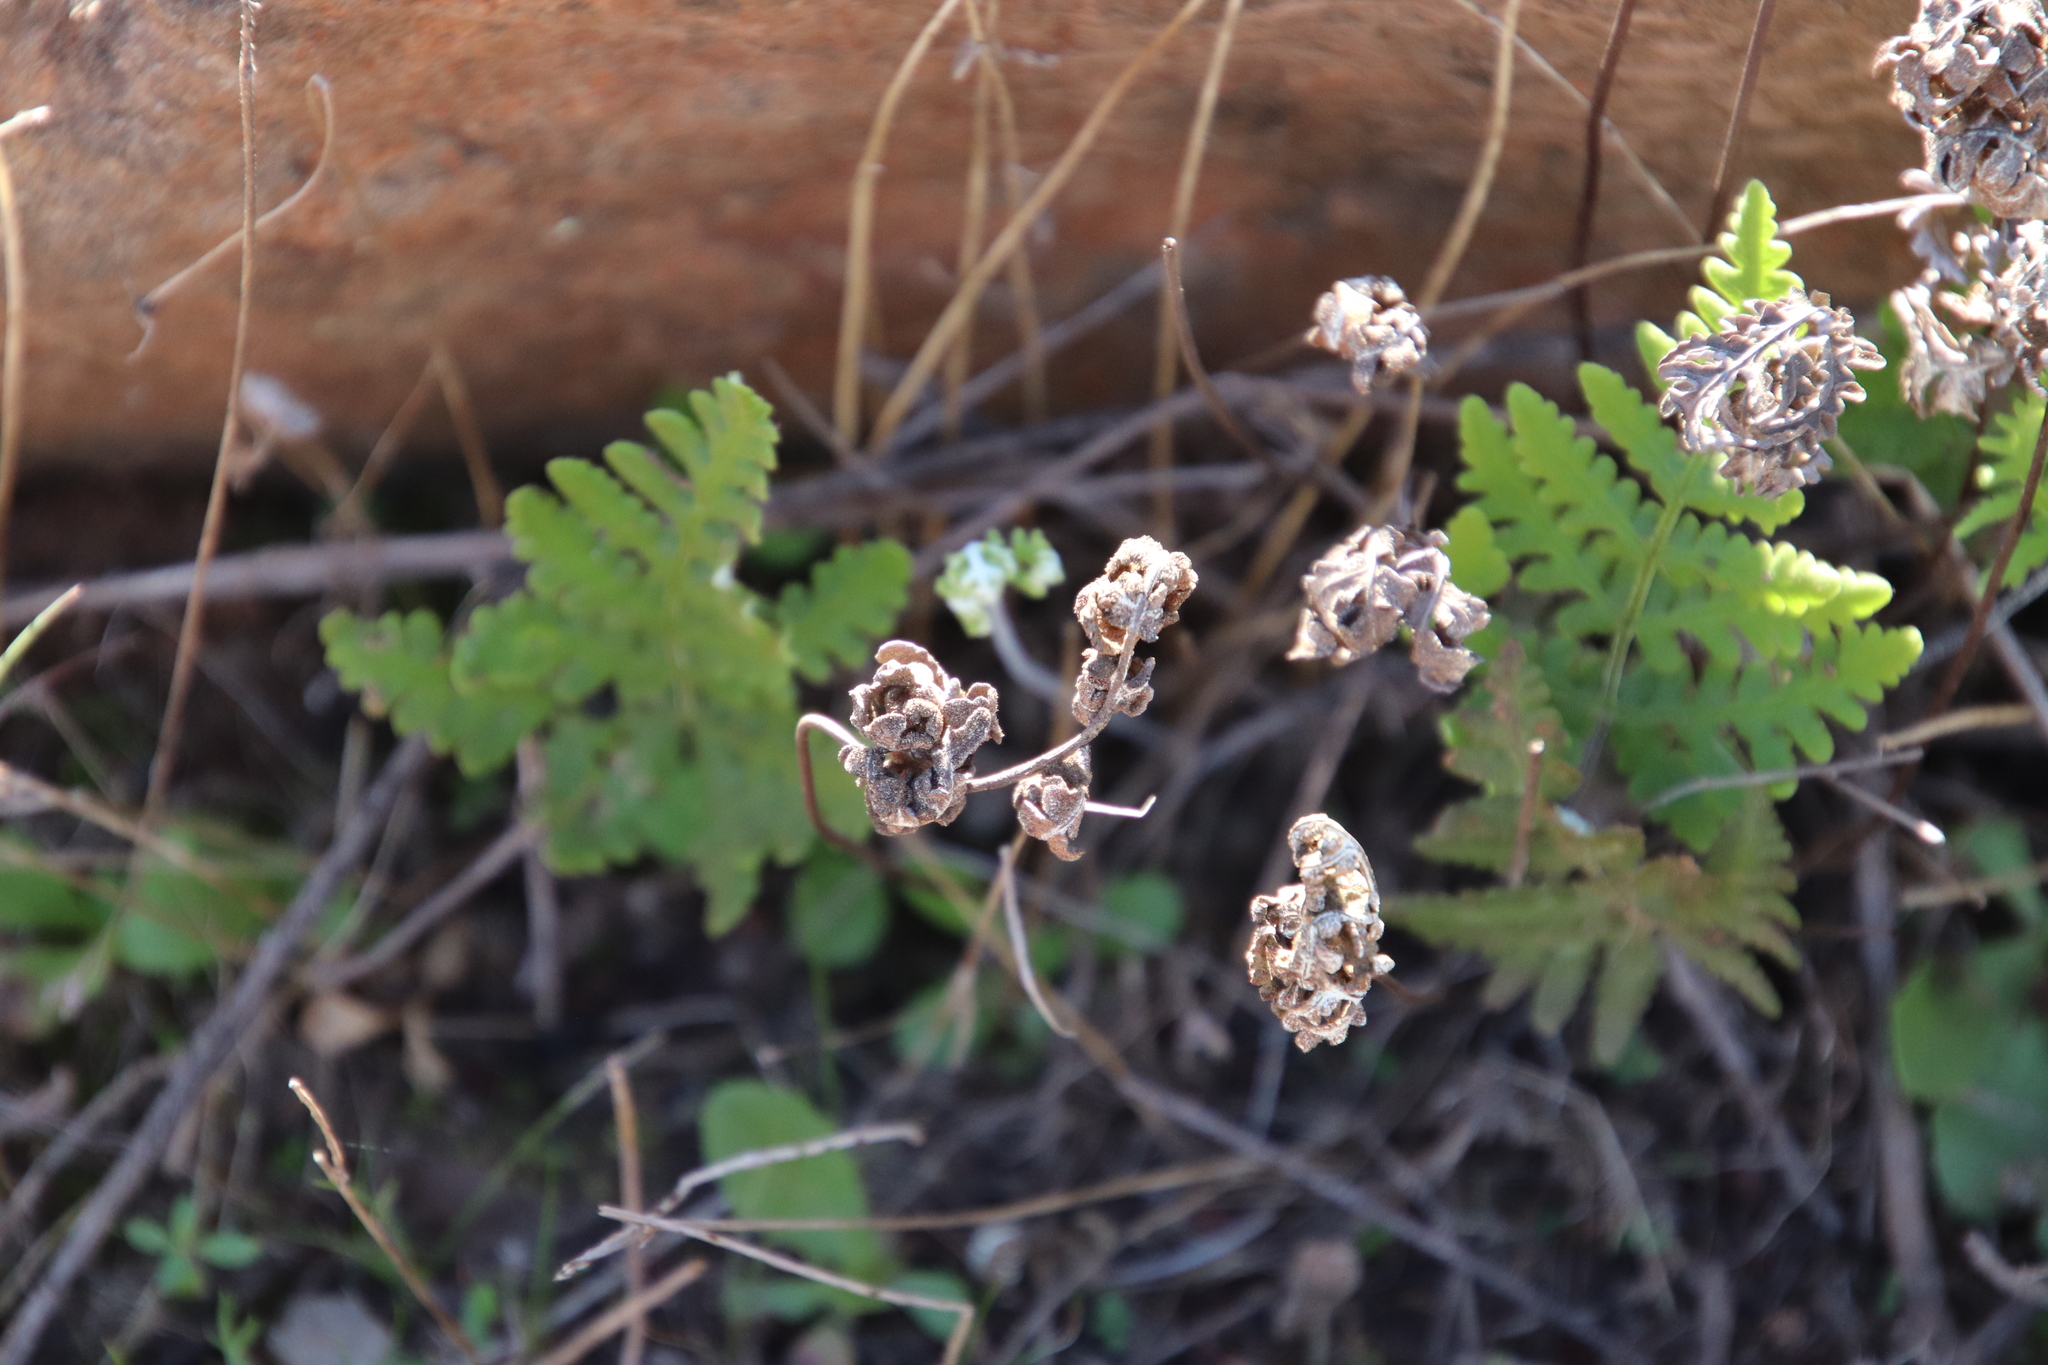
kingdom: Plantae
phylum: Tracheophyta
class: Polypodiopsida
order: Polypodiales
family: Pteridaceae
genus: Pentagramma
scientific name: Pentagramma glanduloviscida
